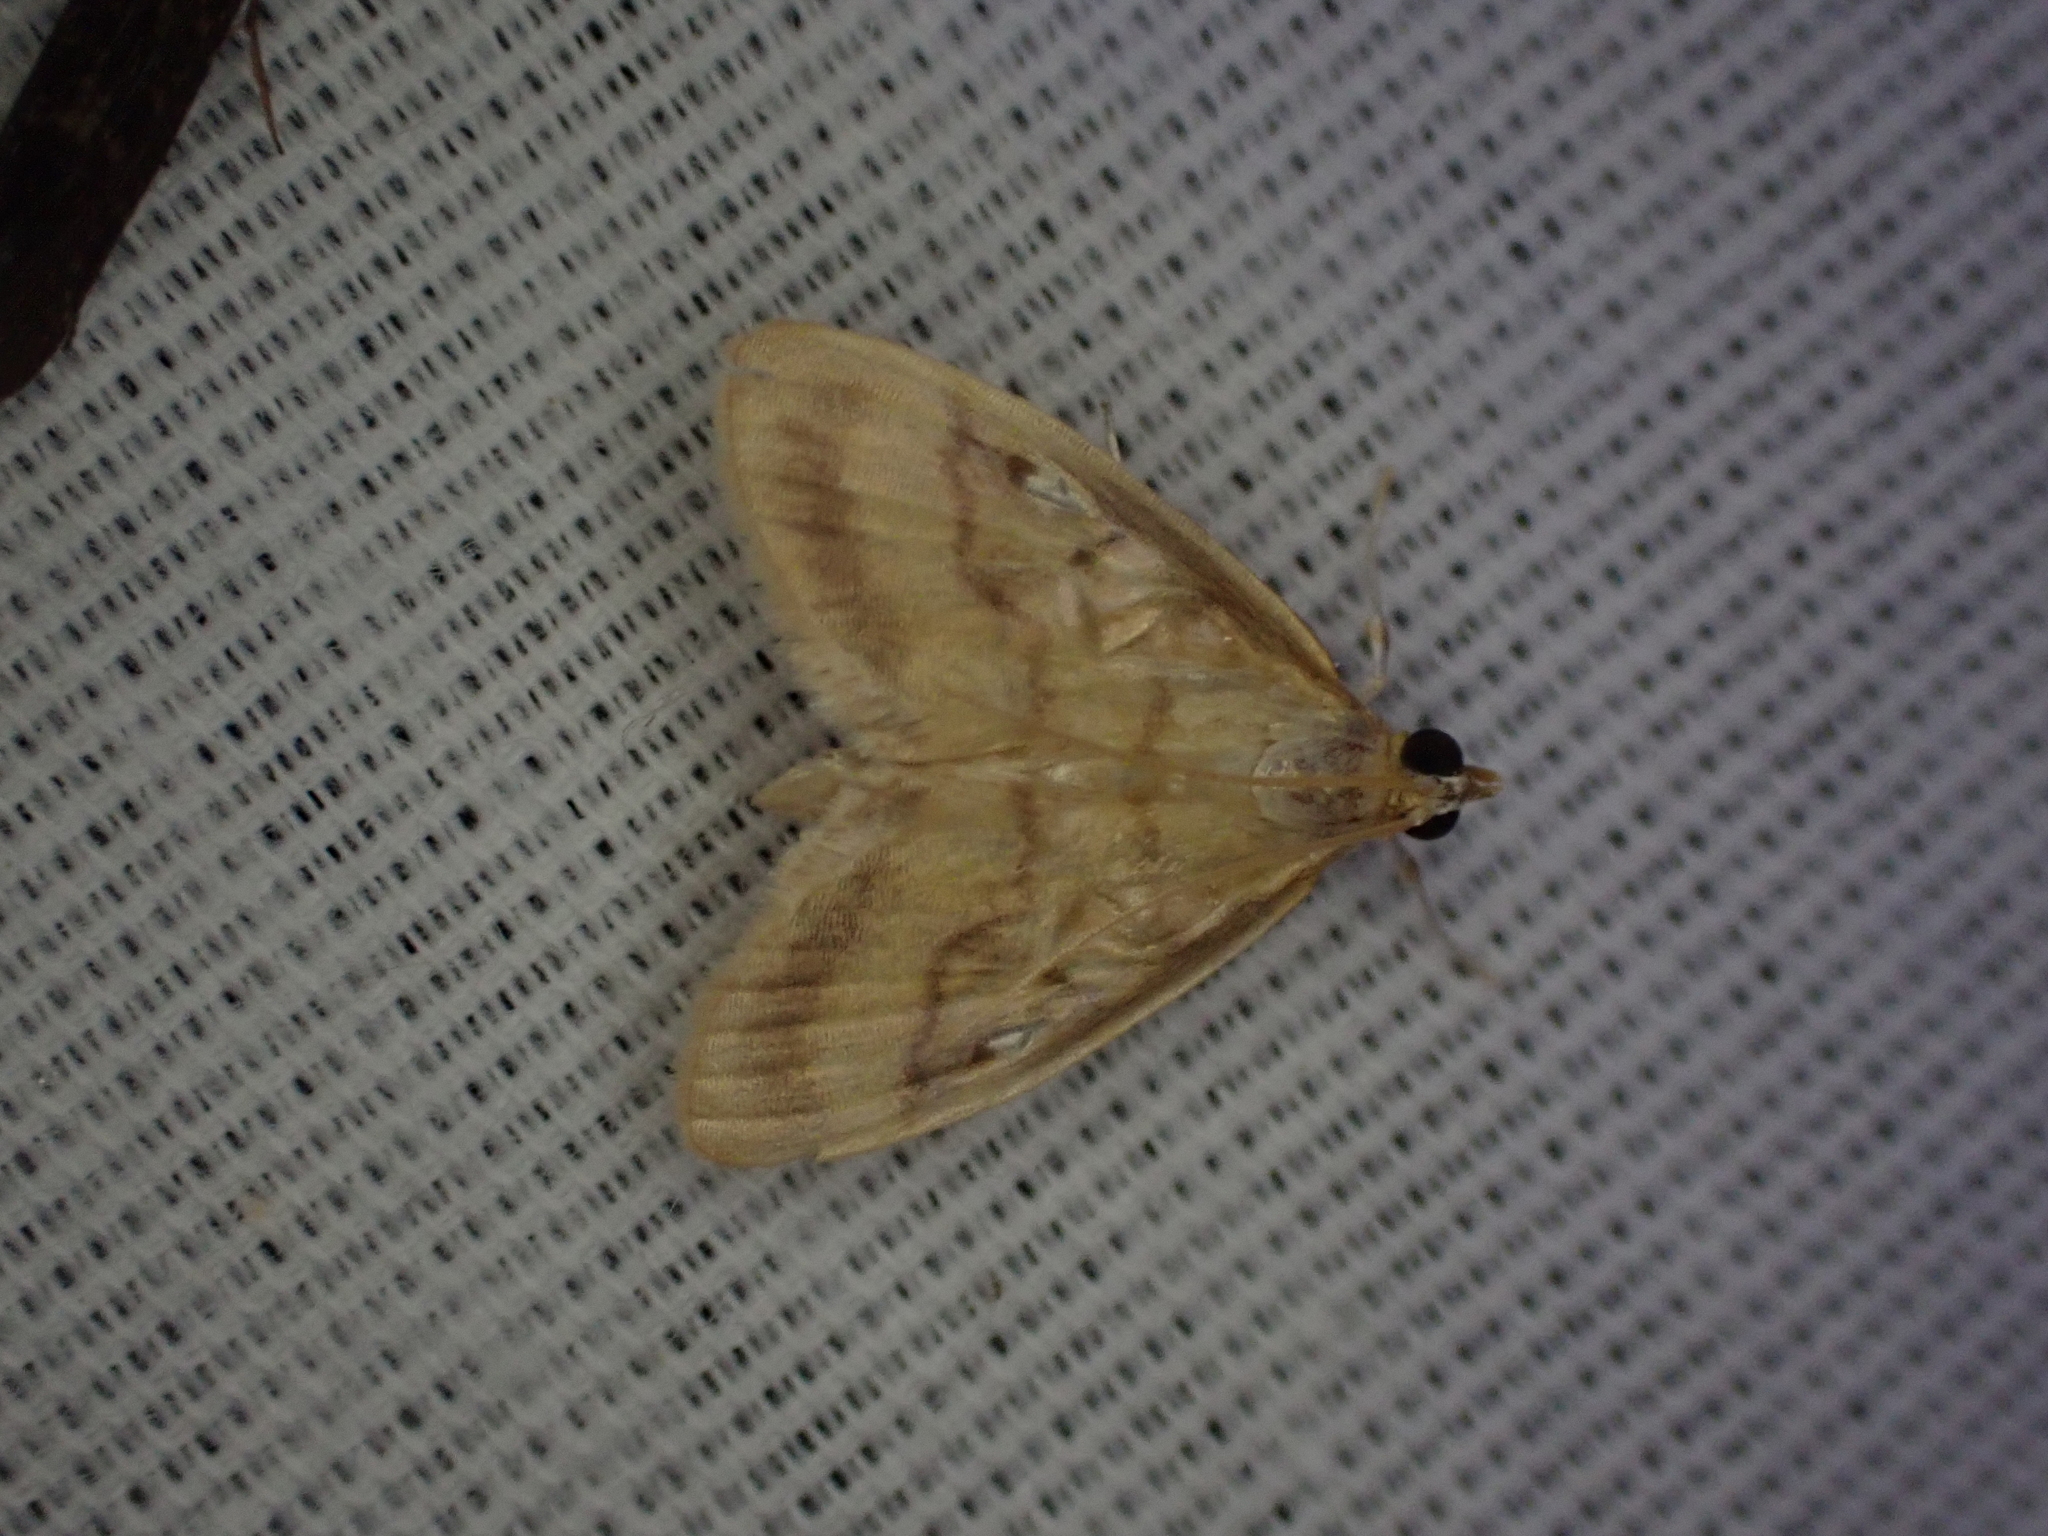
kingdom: Animalia
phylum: Arthropoda
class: Insecta
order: Lepidoptera
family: Crambidae
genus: Crocidophora
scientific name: Crocidophora tuberculalis
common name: Pale-winged crocidiphora moth
